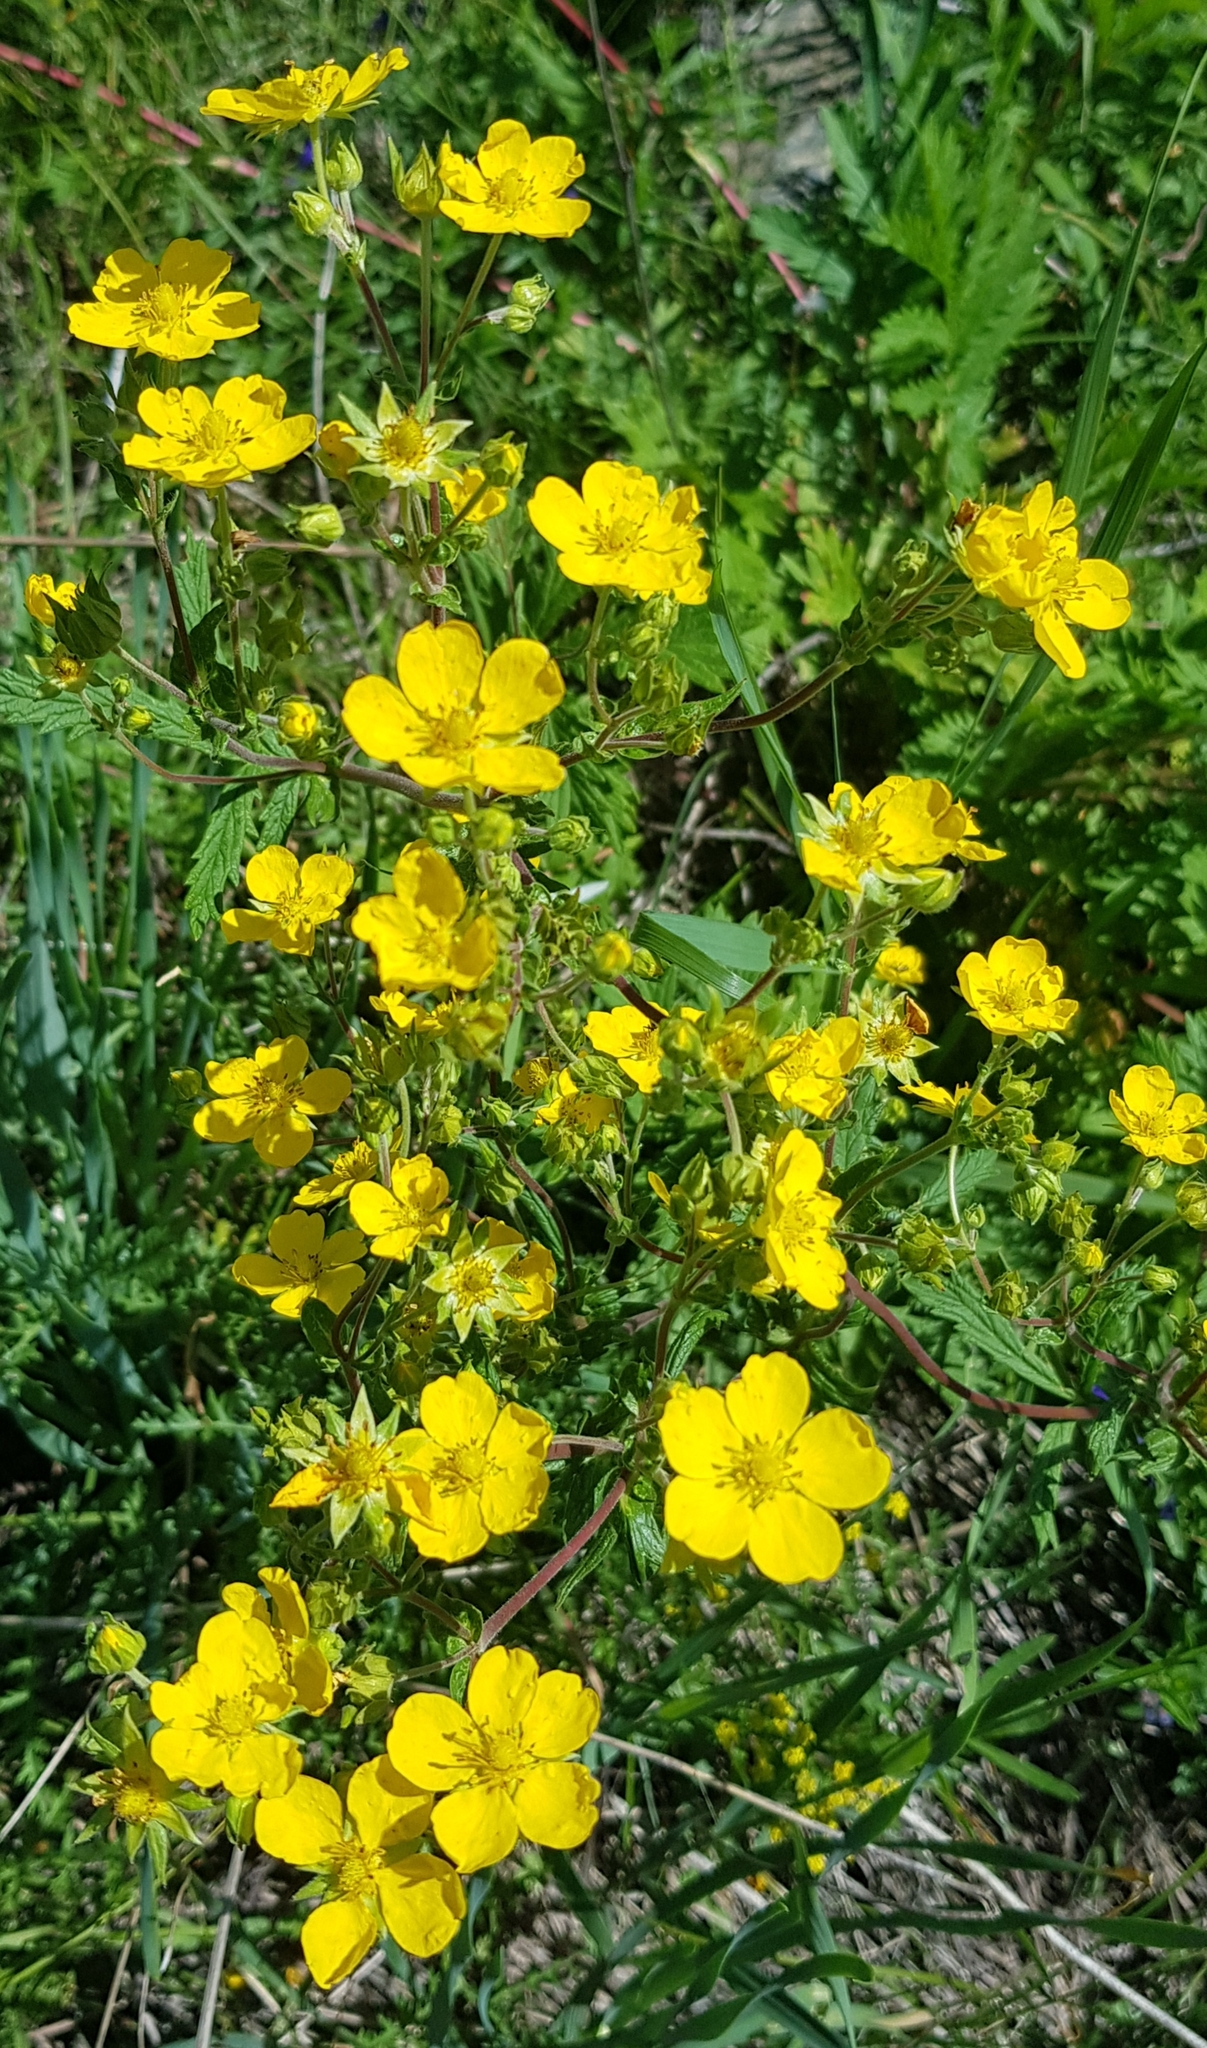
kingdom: Plantae
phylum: Tracheophyta
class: Magnoliopsida
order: Rosales
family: Rosaceae
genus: Potentilla
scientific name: Potentilla tanacetifolia
